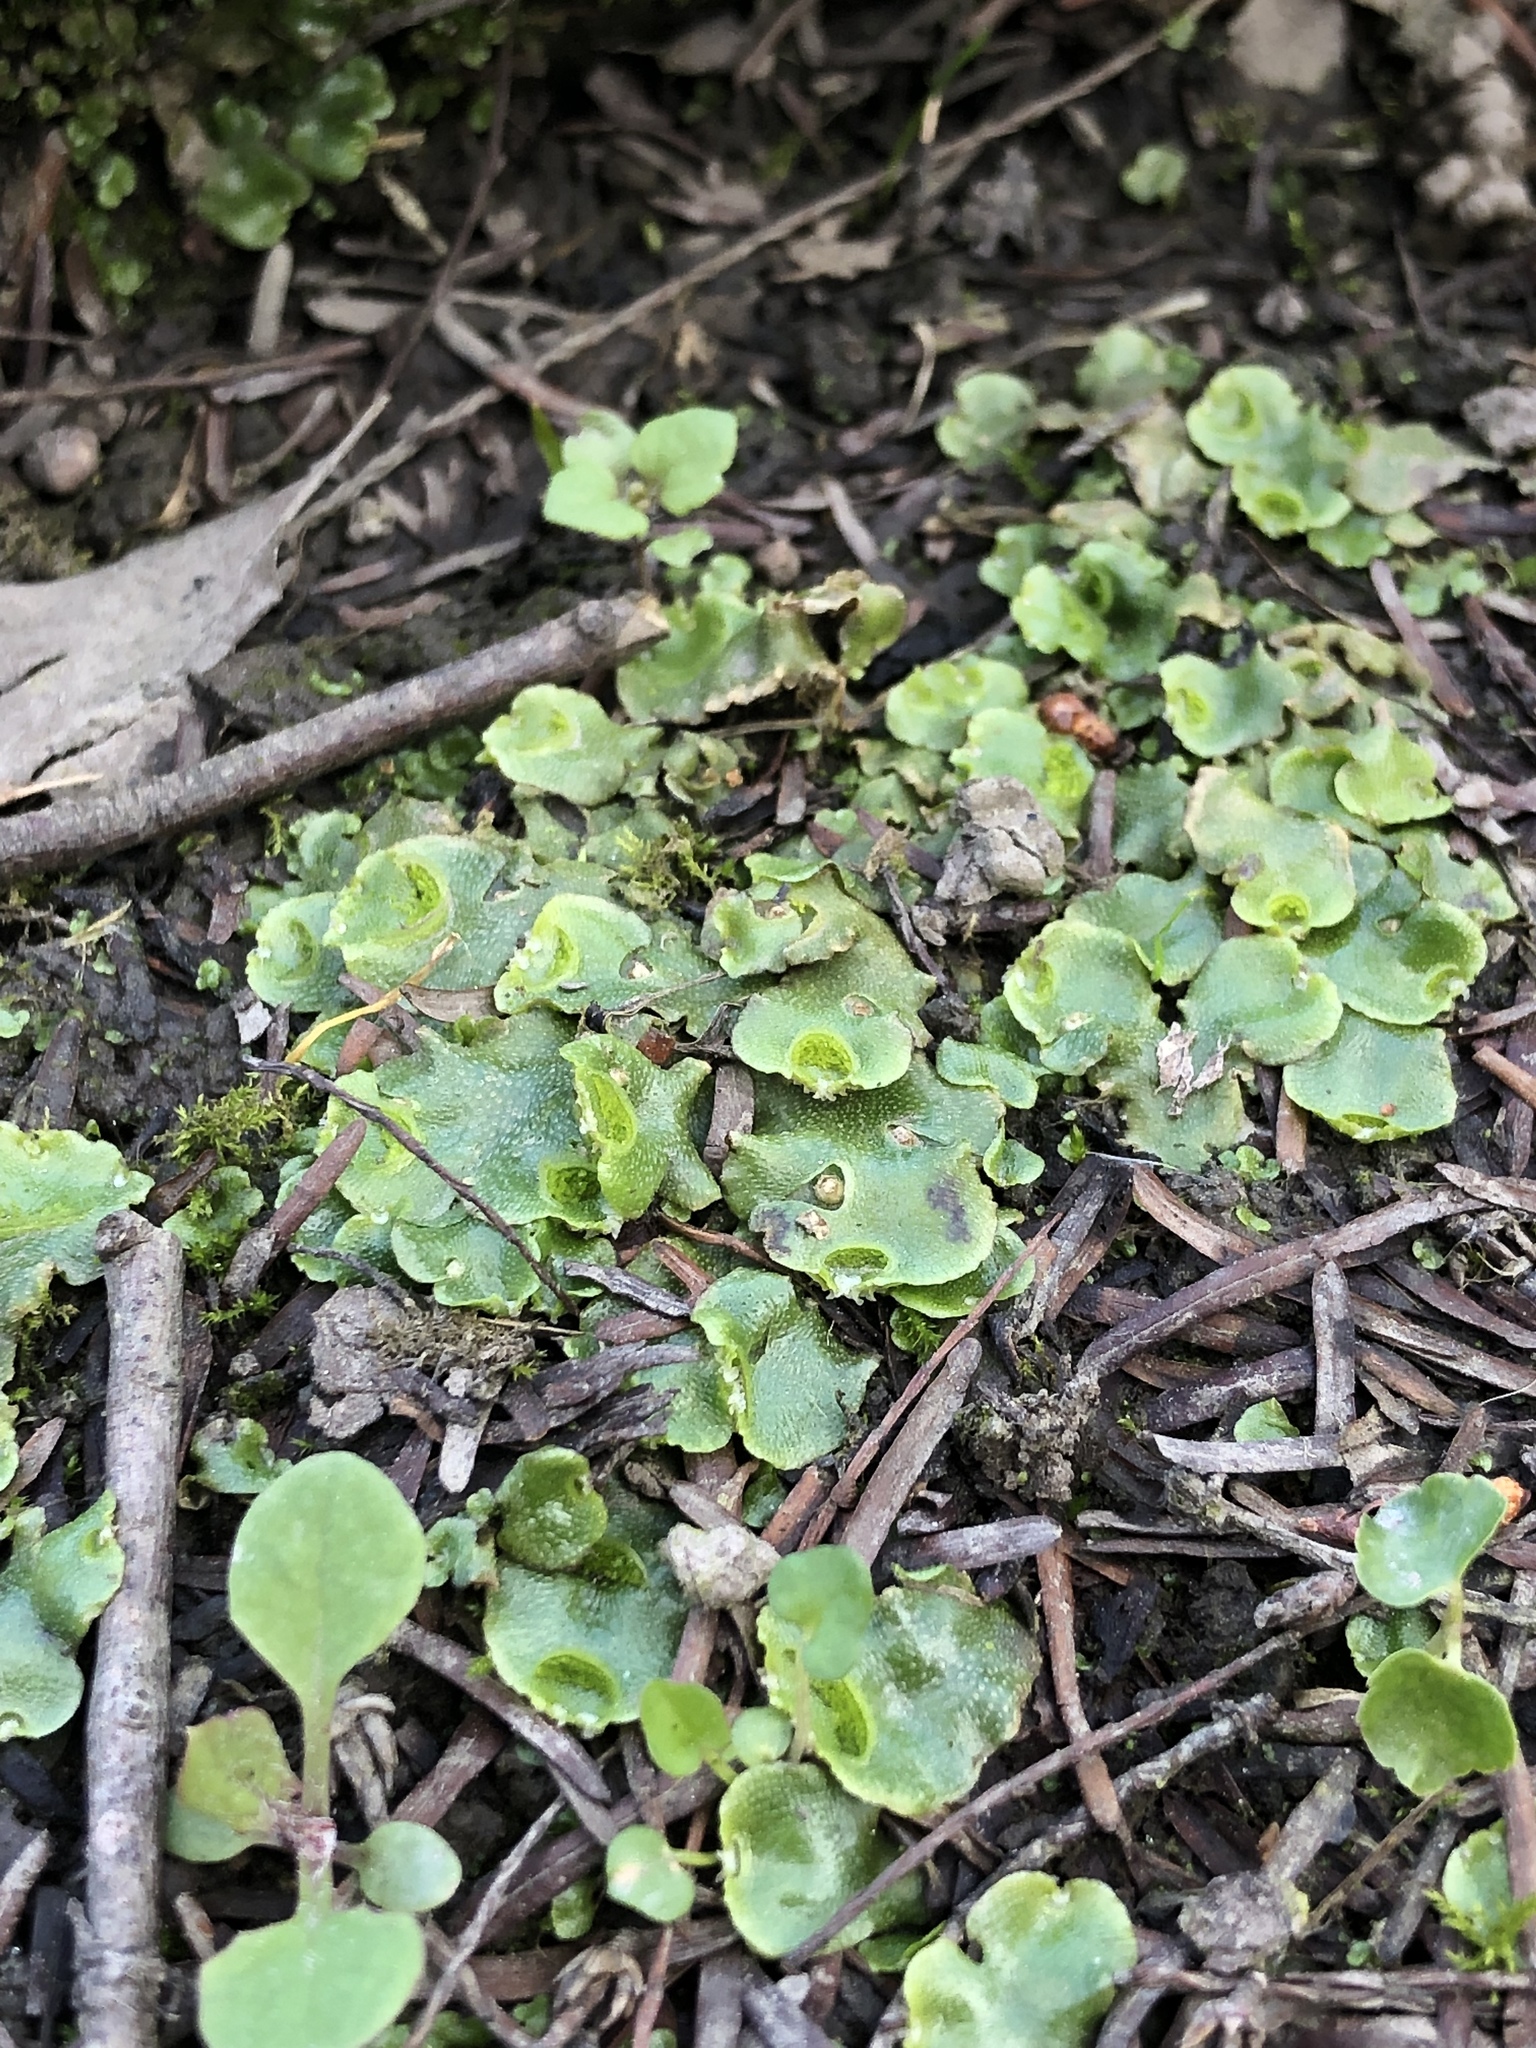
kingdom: Plantae
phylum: Marchantiophyta
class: Marchantiopsida
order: Lunulariales
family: Lunulariaceae
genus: Lunularia
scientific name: Lunularia cruciata
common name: Crescent-cup liverwort
